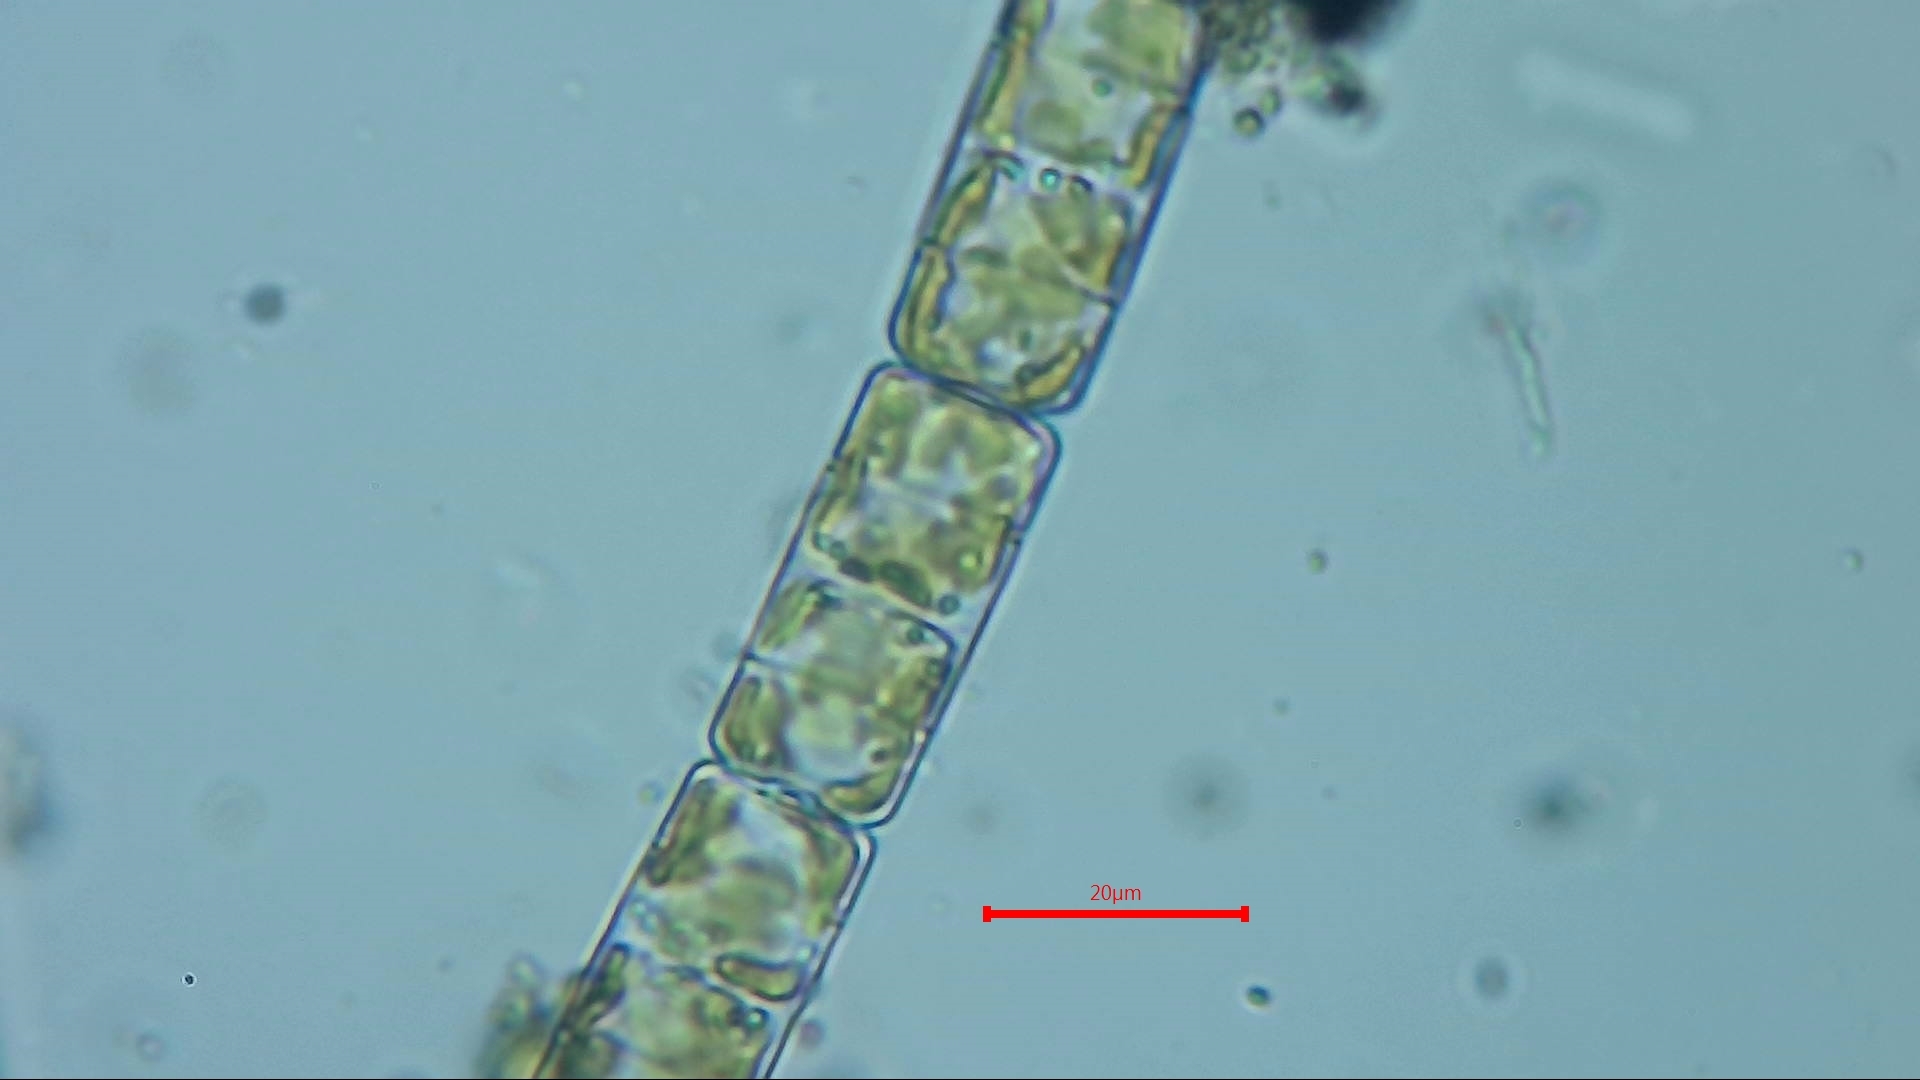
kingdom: Chromista
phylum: Ochrophyta
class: Bacillariophyceae
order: Melosirales
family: Melosiraceae
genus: Melosira
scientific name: Melosira varians
